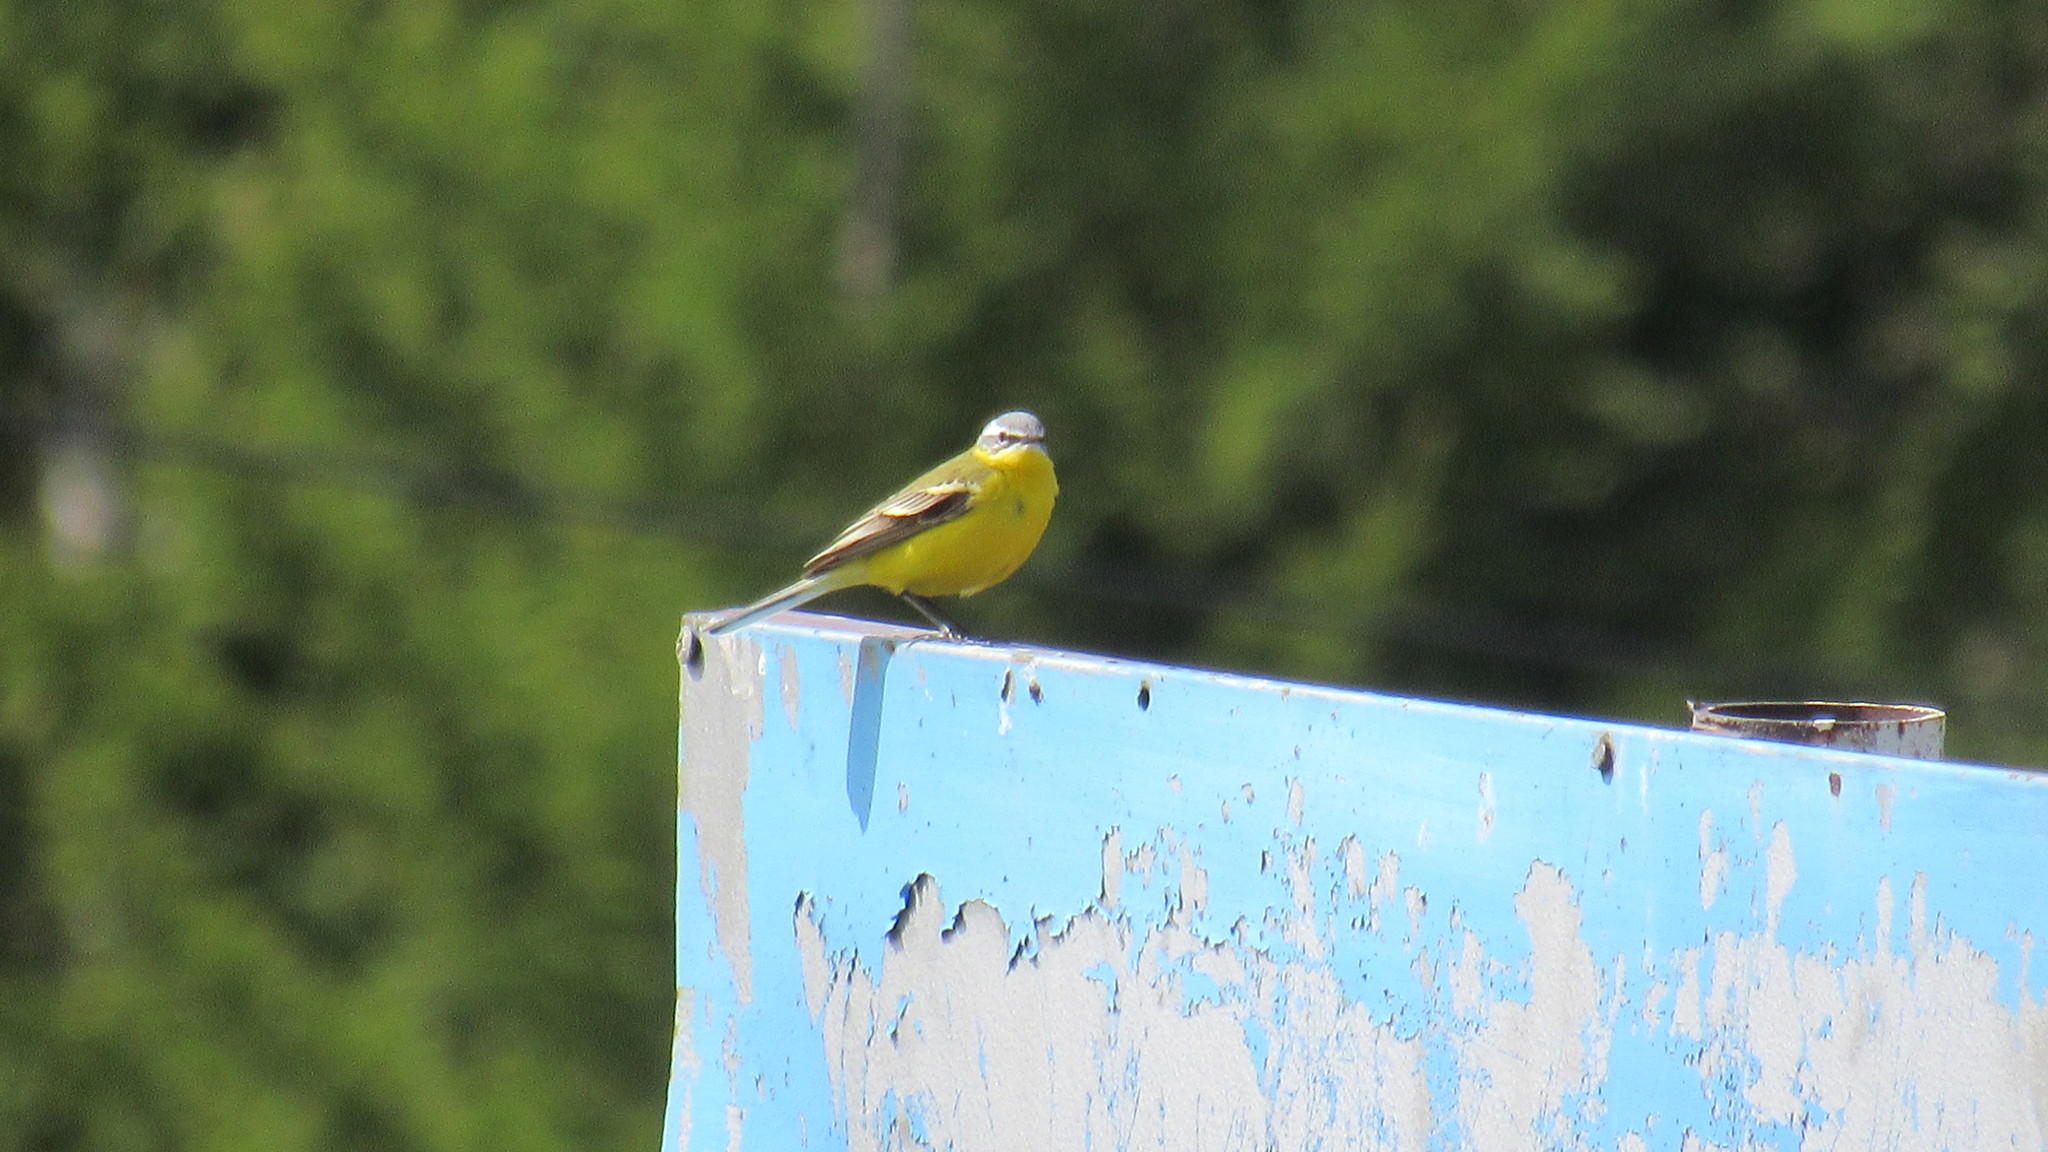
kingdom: Animalia
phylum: Chordata
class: Aves
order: Passeriformes
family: Motacillidae
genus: Motacilla
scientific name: Motacilla flava
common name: Western yellow wagtail
